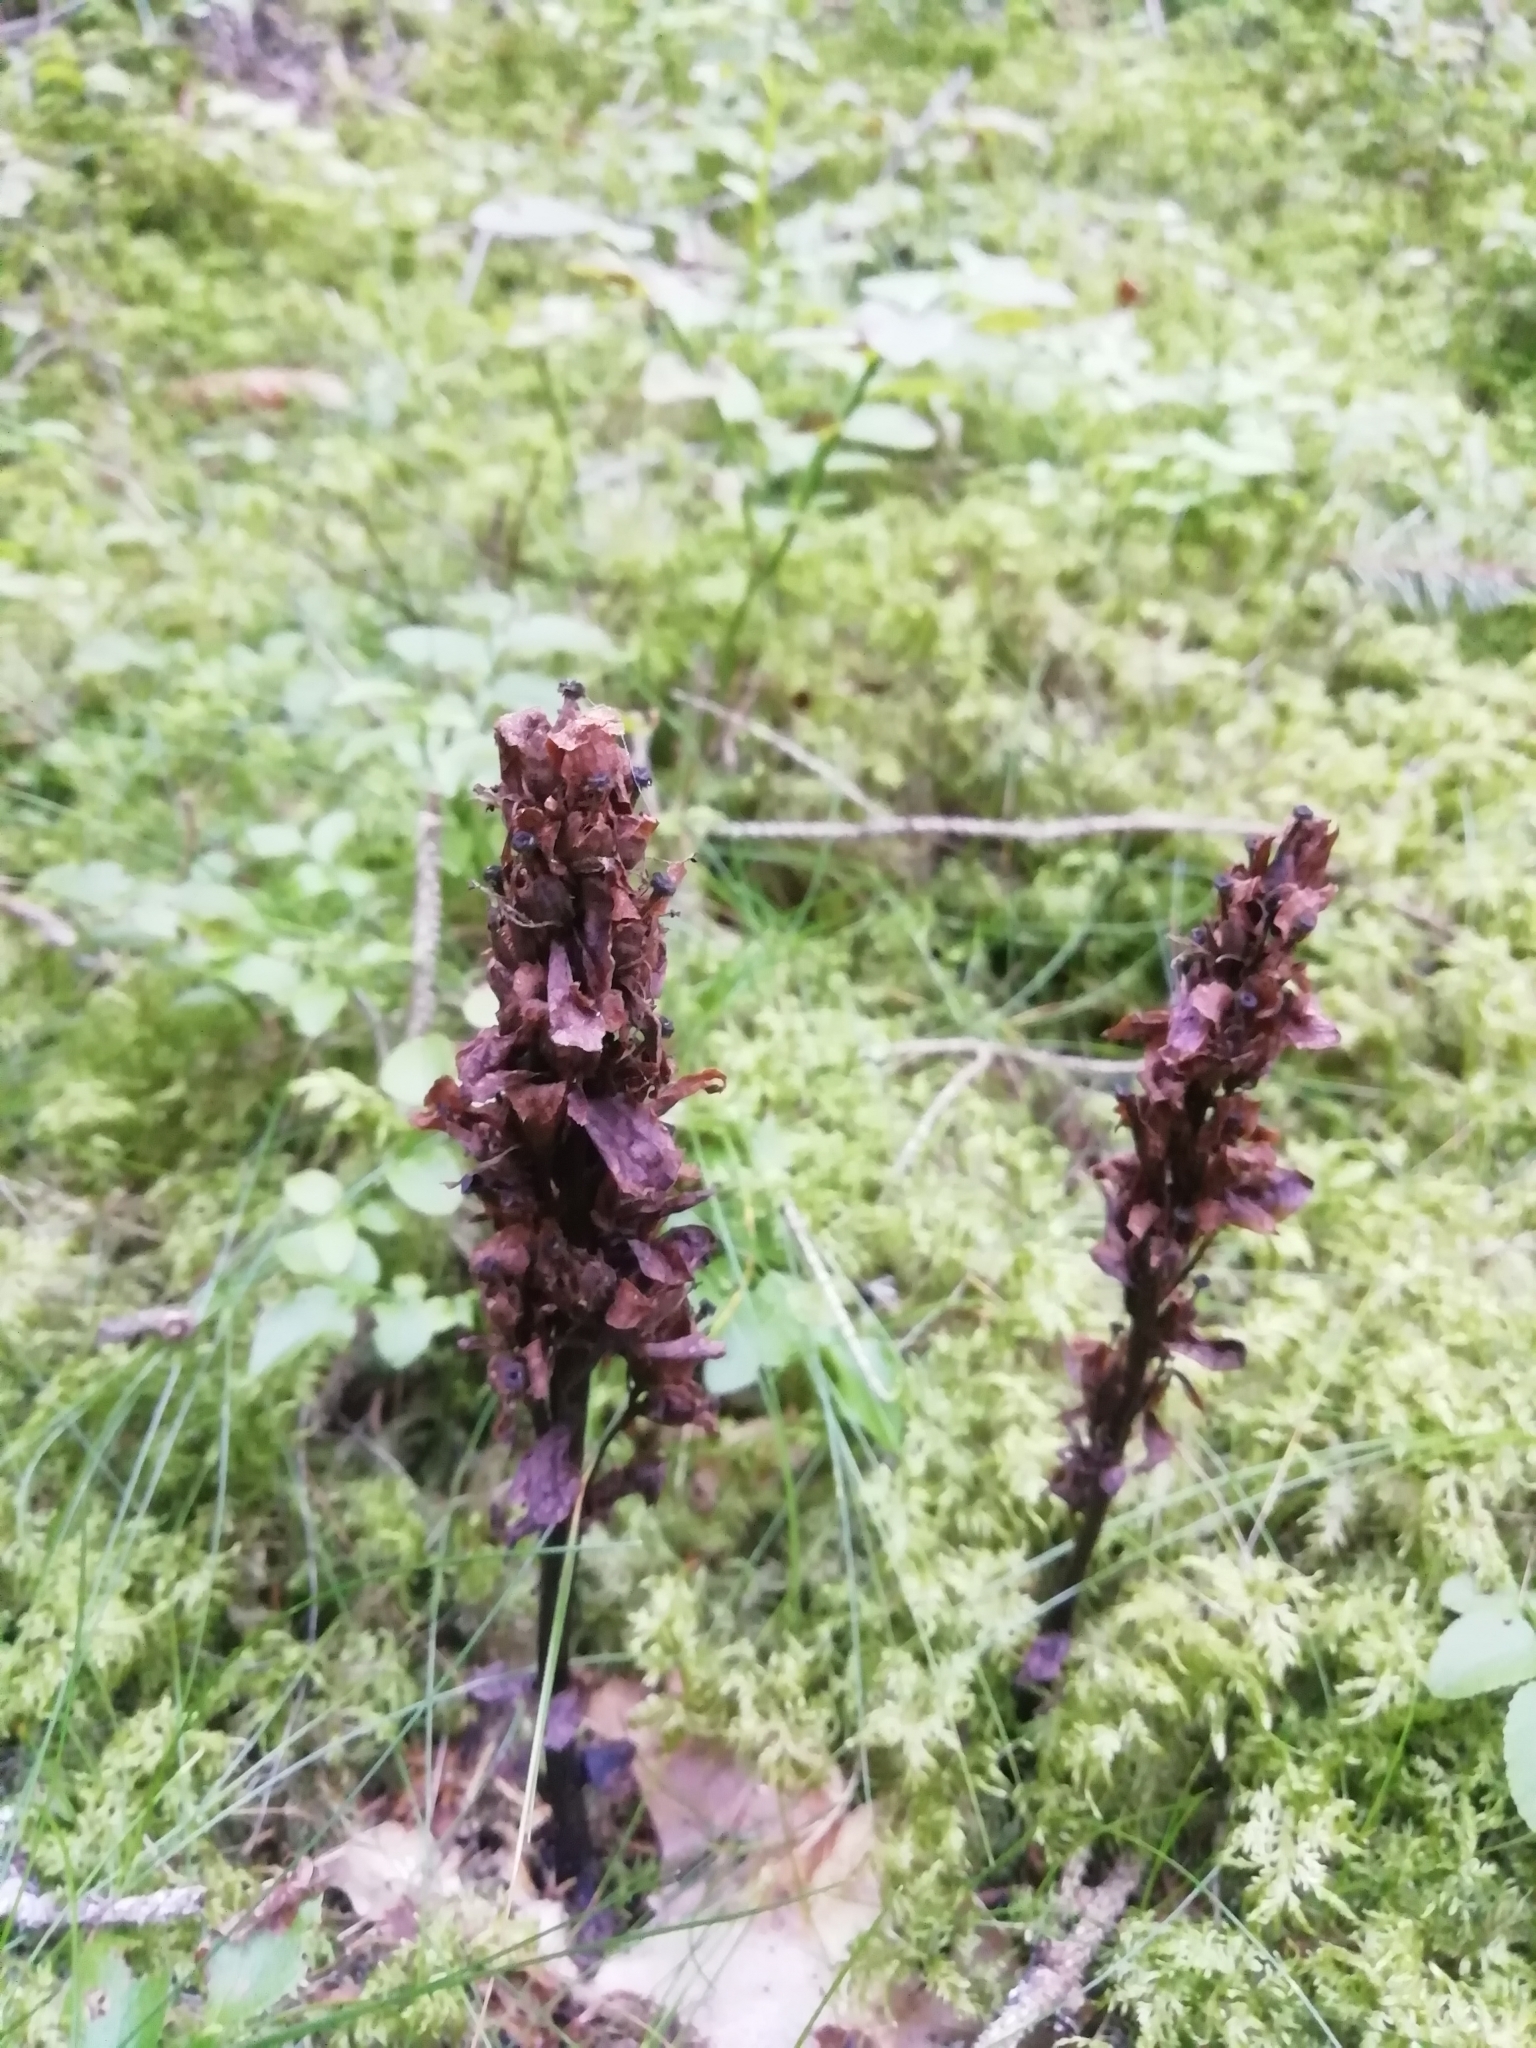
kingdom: Plantae
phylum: Tracheophyta
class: Magnoliopsida
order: Ericales
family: Ericaceae
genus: Hypopitys
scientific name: Hypopitys monotropa
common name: Yellow bird's-nest
